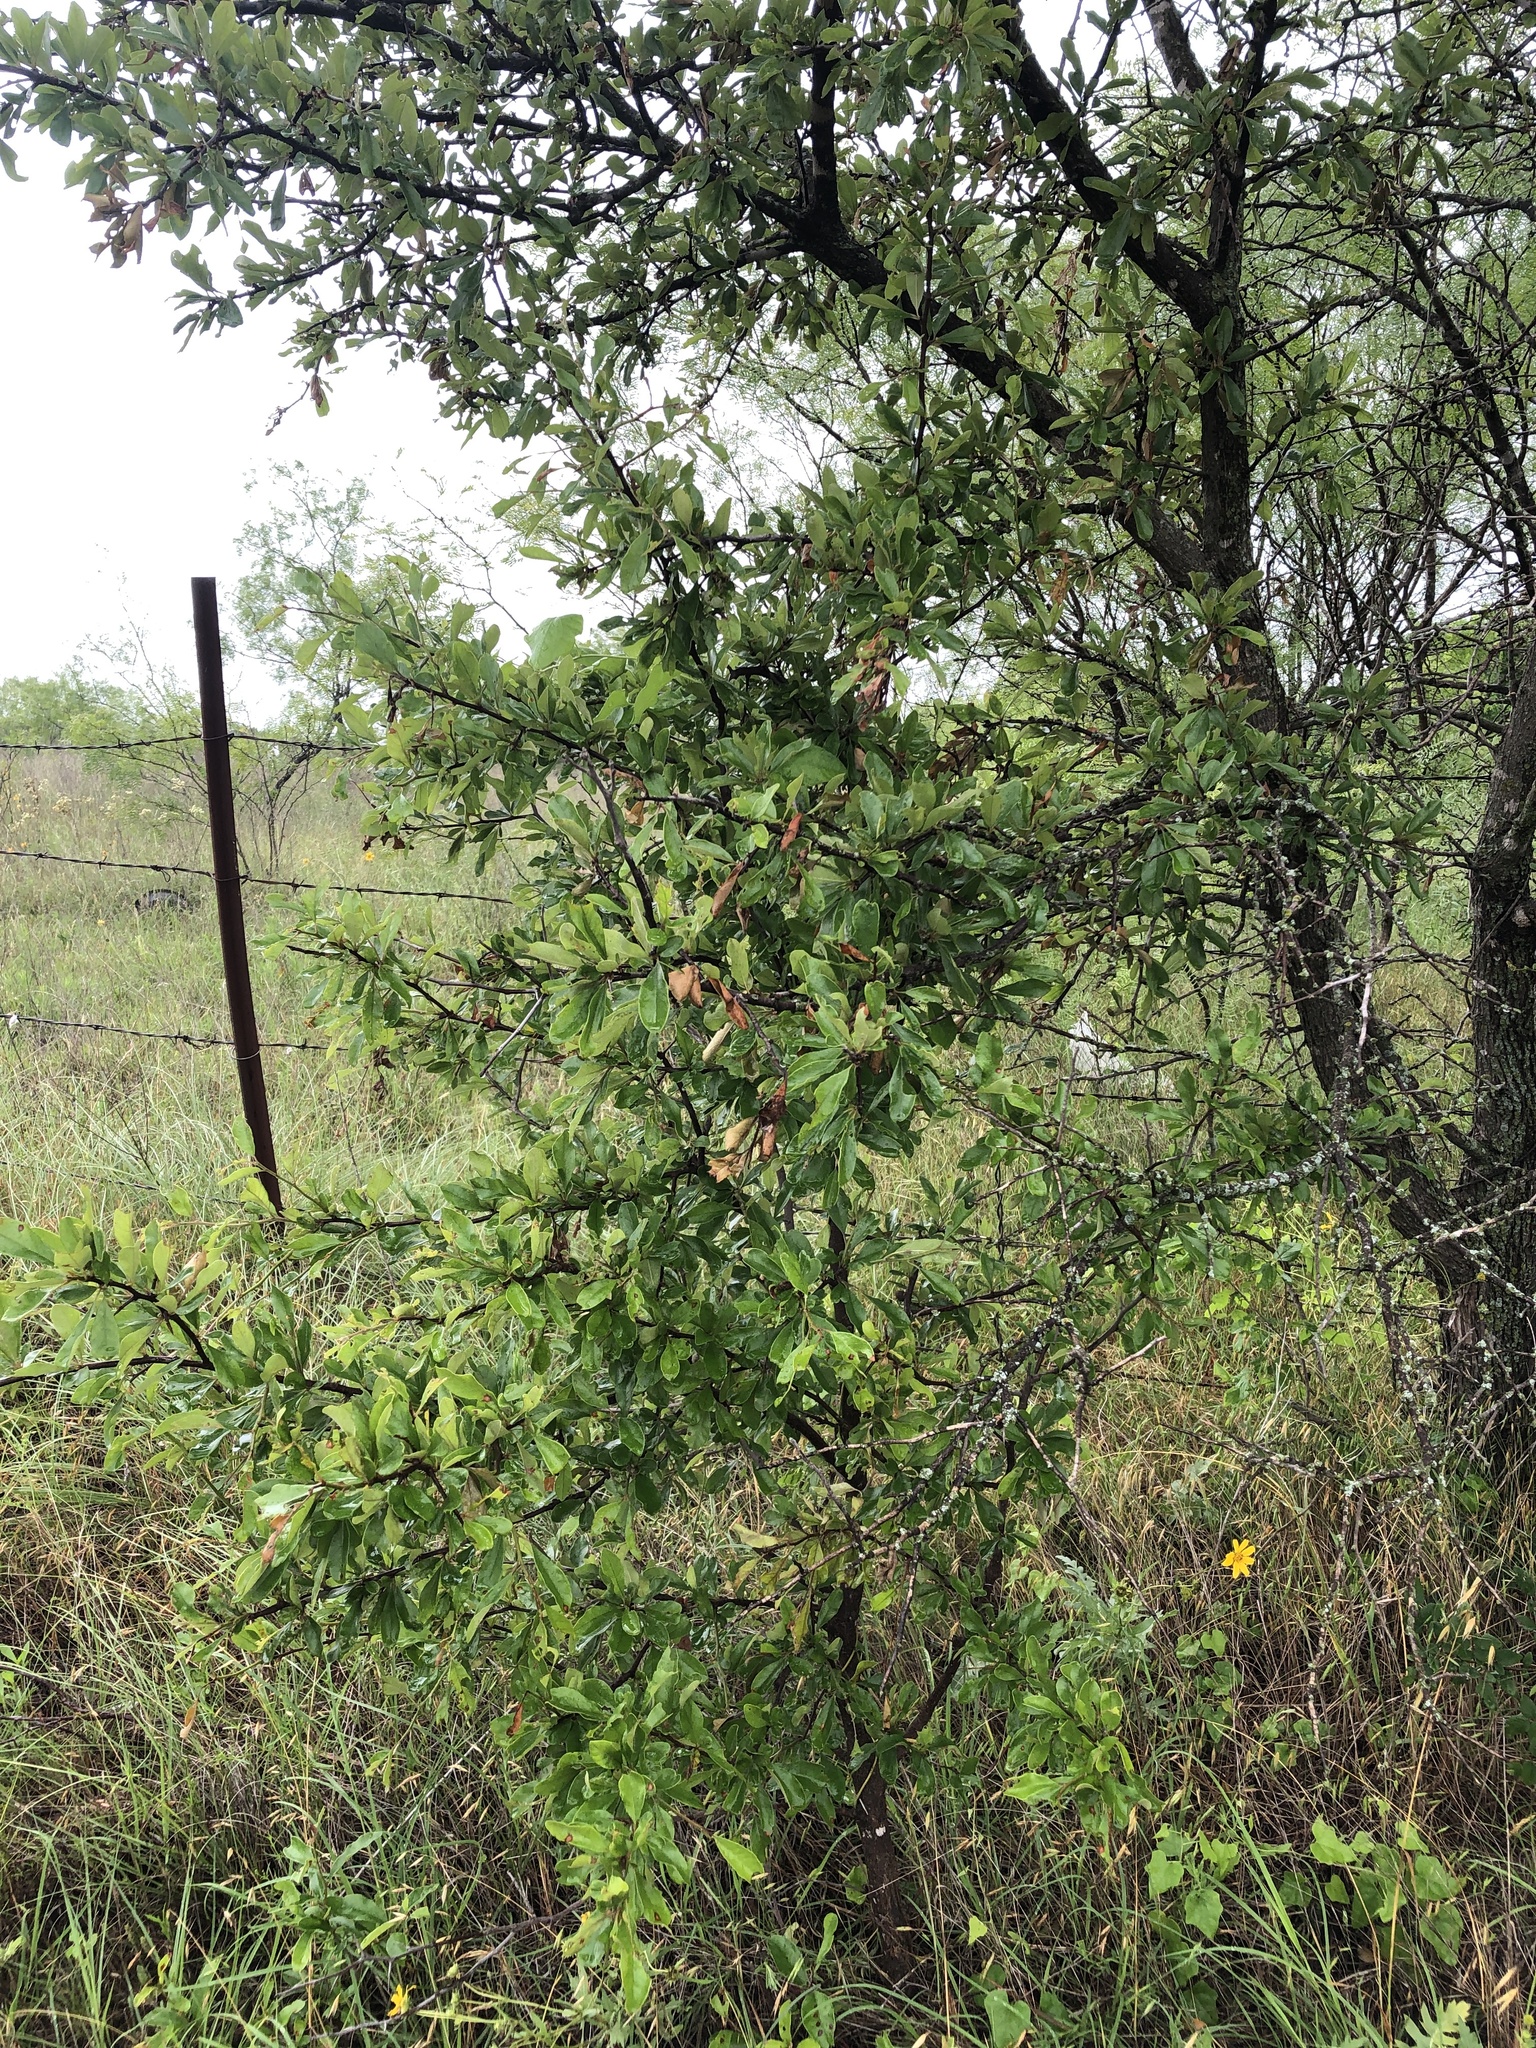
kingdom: Plantae
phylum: Tracheophyta
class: Magnoliopsida
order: Ericales
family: Sapotaceae
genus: Sideroxylon
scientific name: Sideroxylon lanuginosum
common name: Chittamwood
